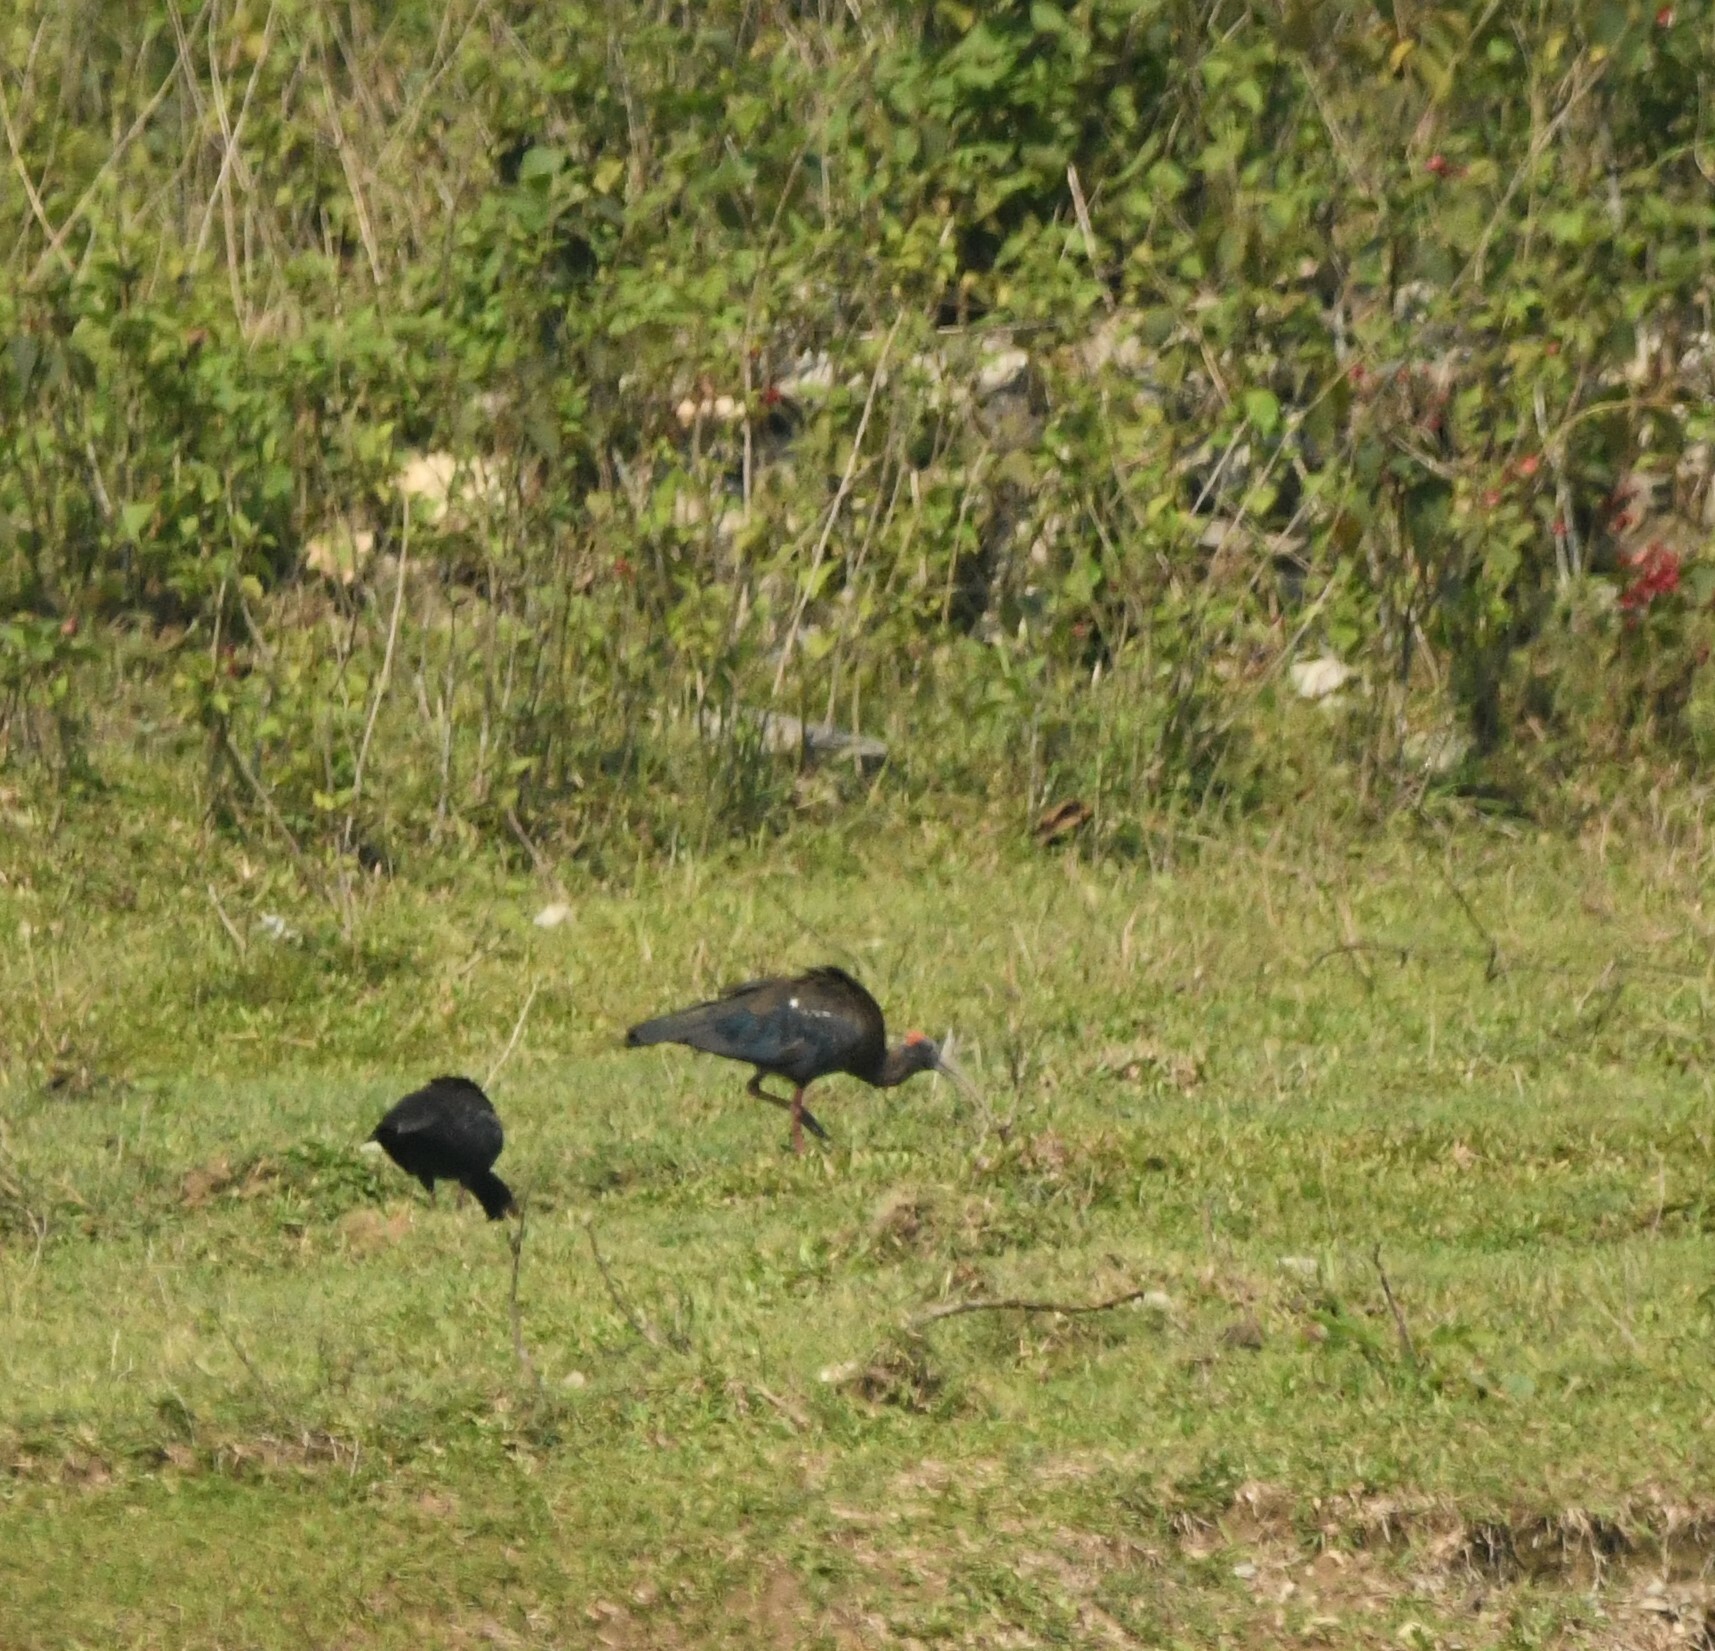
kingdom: Animalia
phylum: Chordata
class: Aves
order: Pelecaniformes
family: Threskiornithidae
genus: Pseudibis
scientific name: Pseudibis papillosa
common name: Red-naped ibis
